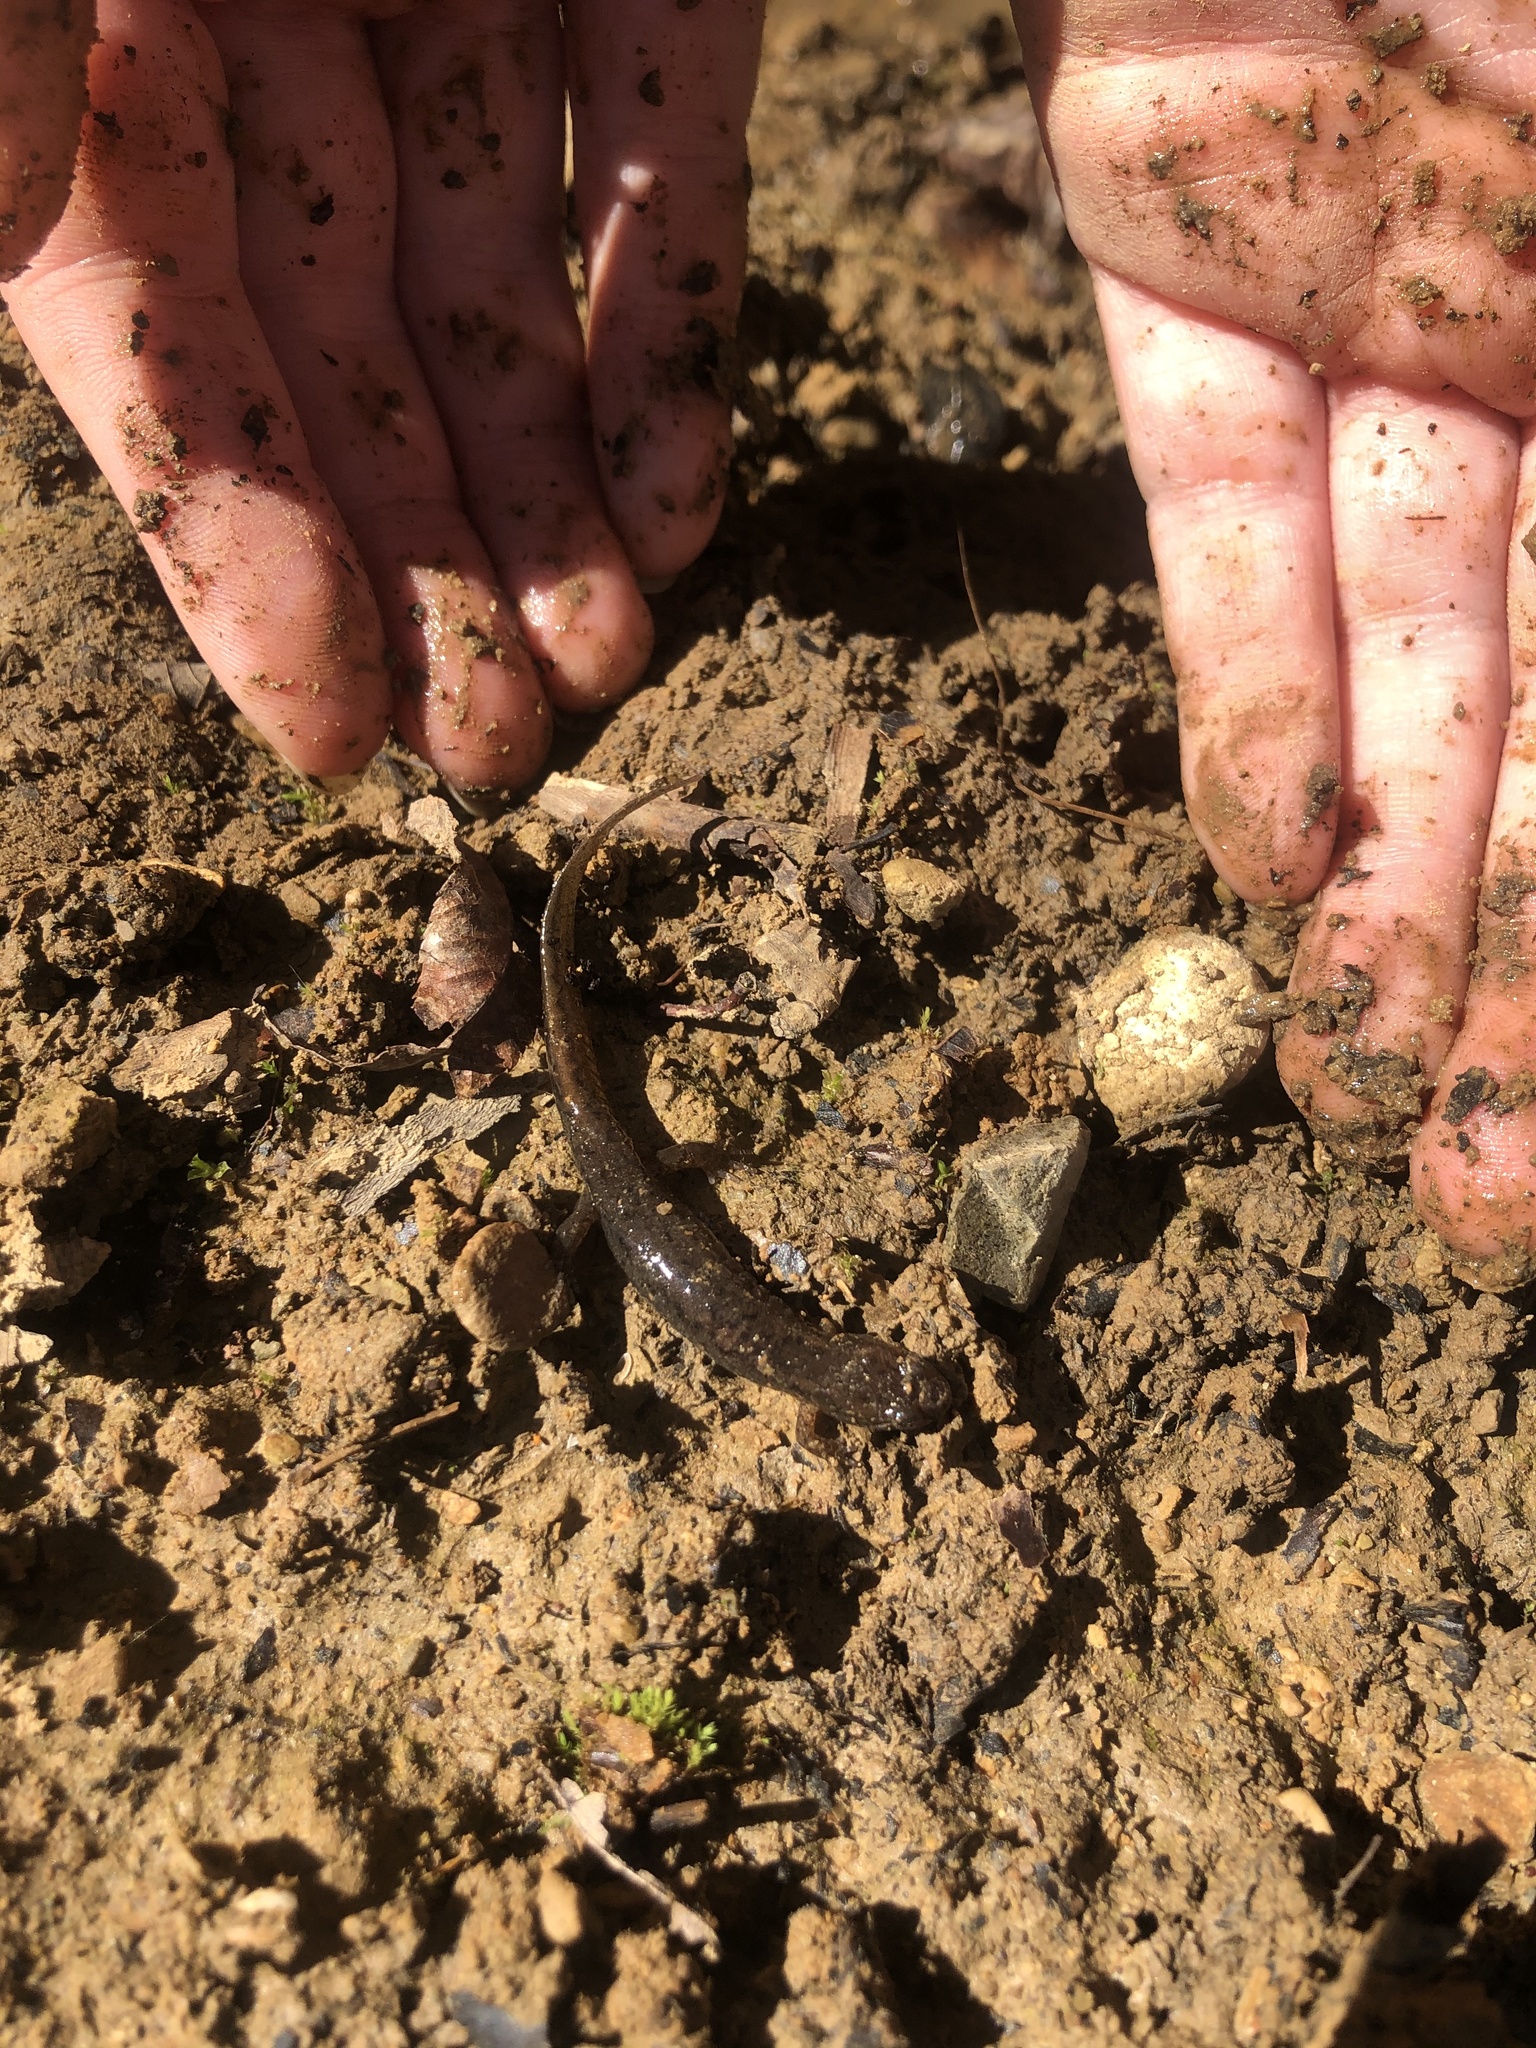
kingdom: Animalia
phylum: Chordata
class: Amphibia
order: Caudata
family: Plethodontidae
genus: Desmognathus
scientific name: Desmognathus fuscus
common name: Northern dusky salamander
